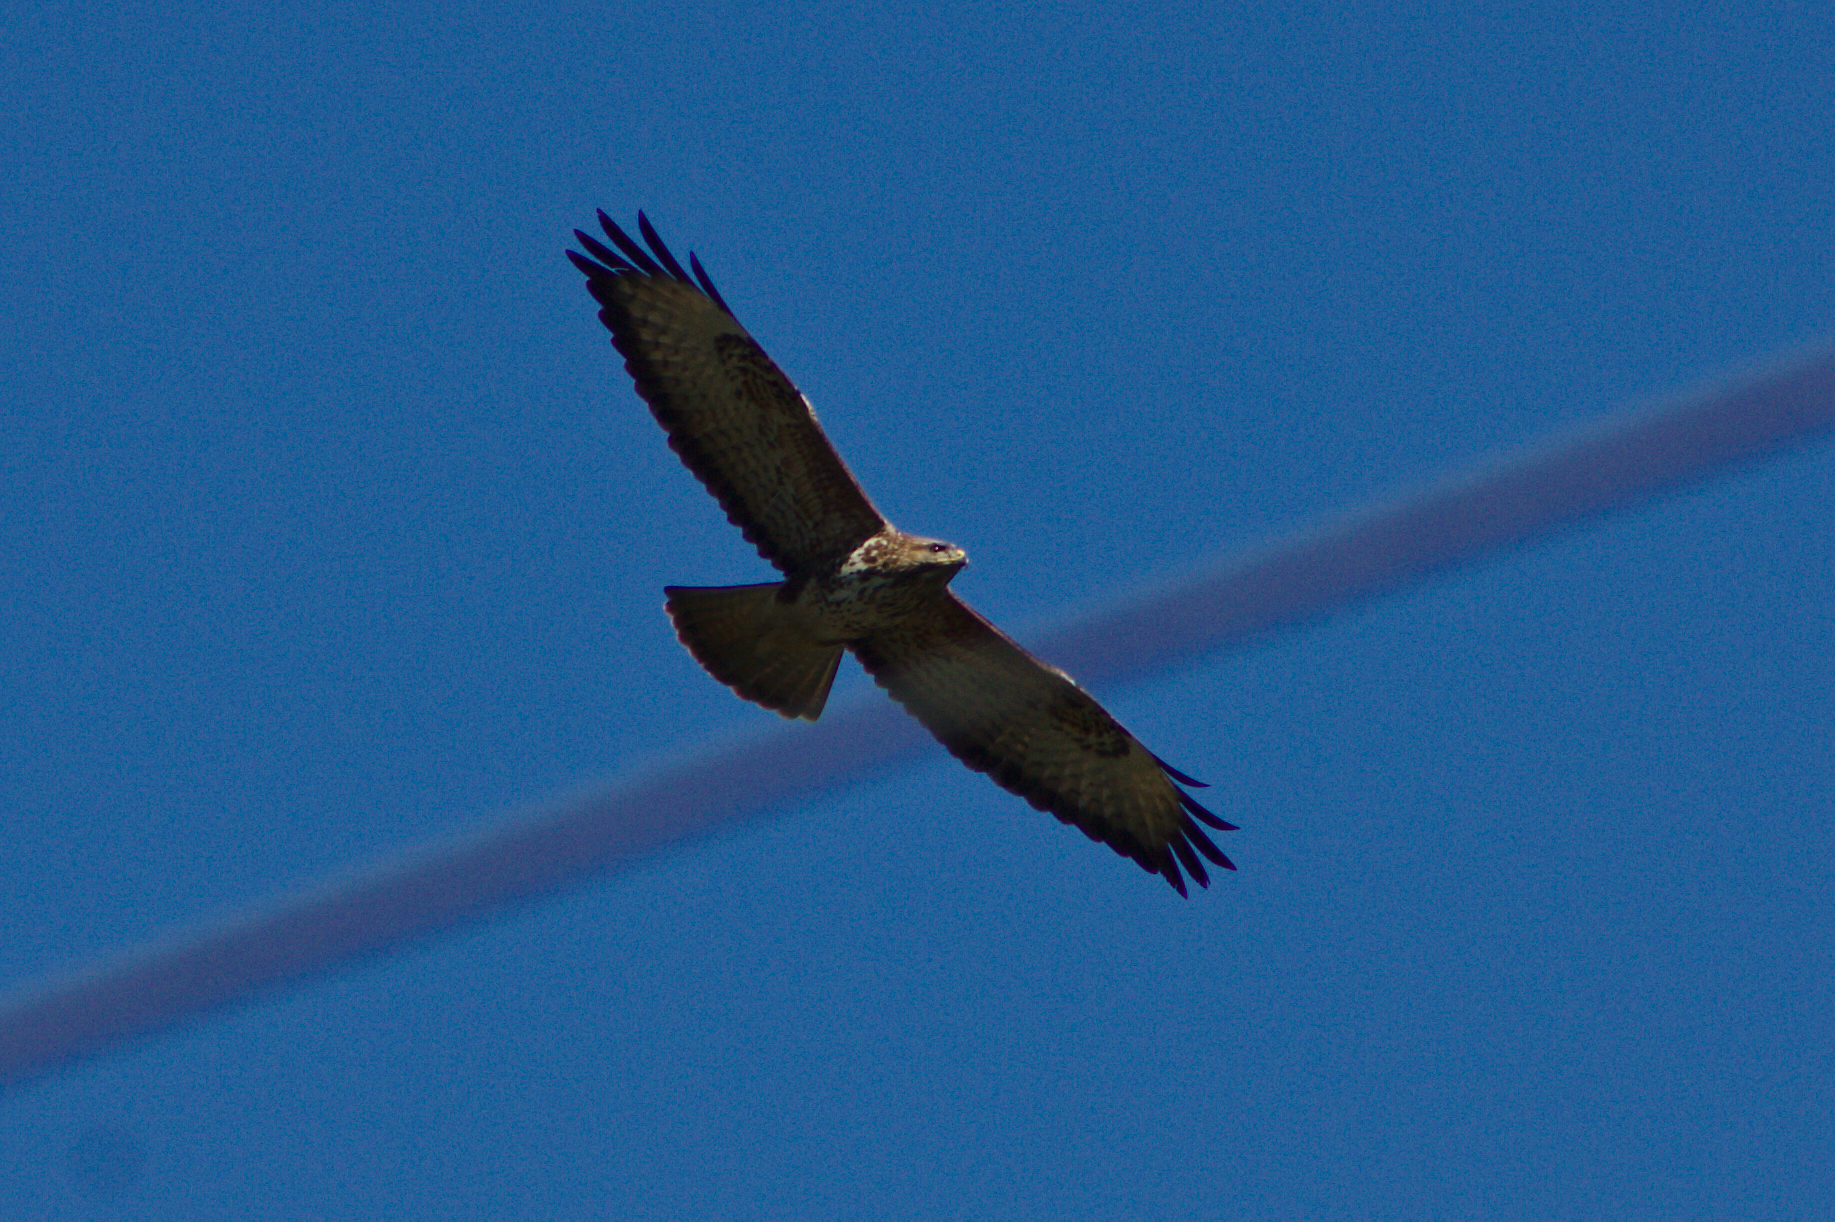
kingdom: Animalia
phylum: Chordata
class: Aves
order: Accipitriformes
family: Accipitridae
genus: Buteo
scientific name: Buteo buteo
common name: Common buzzard
